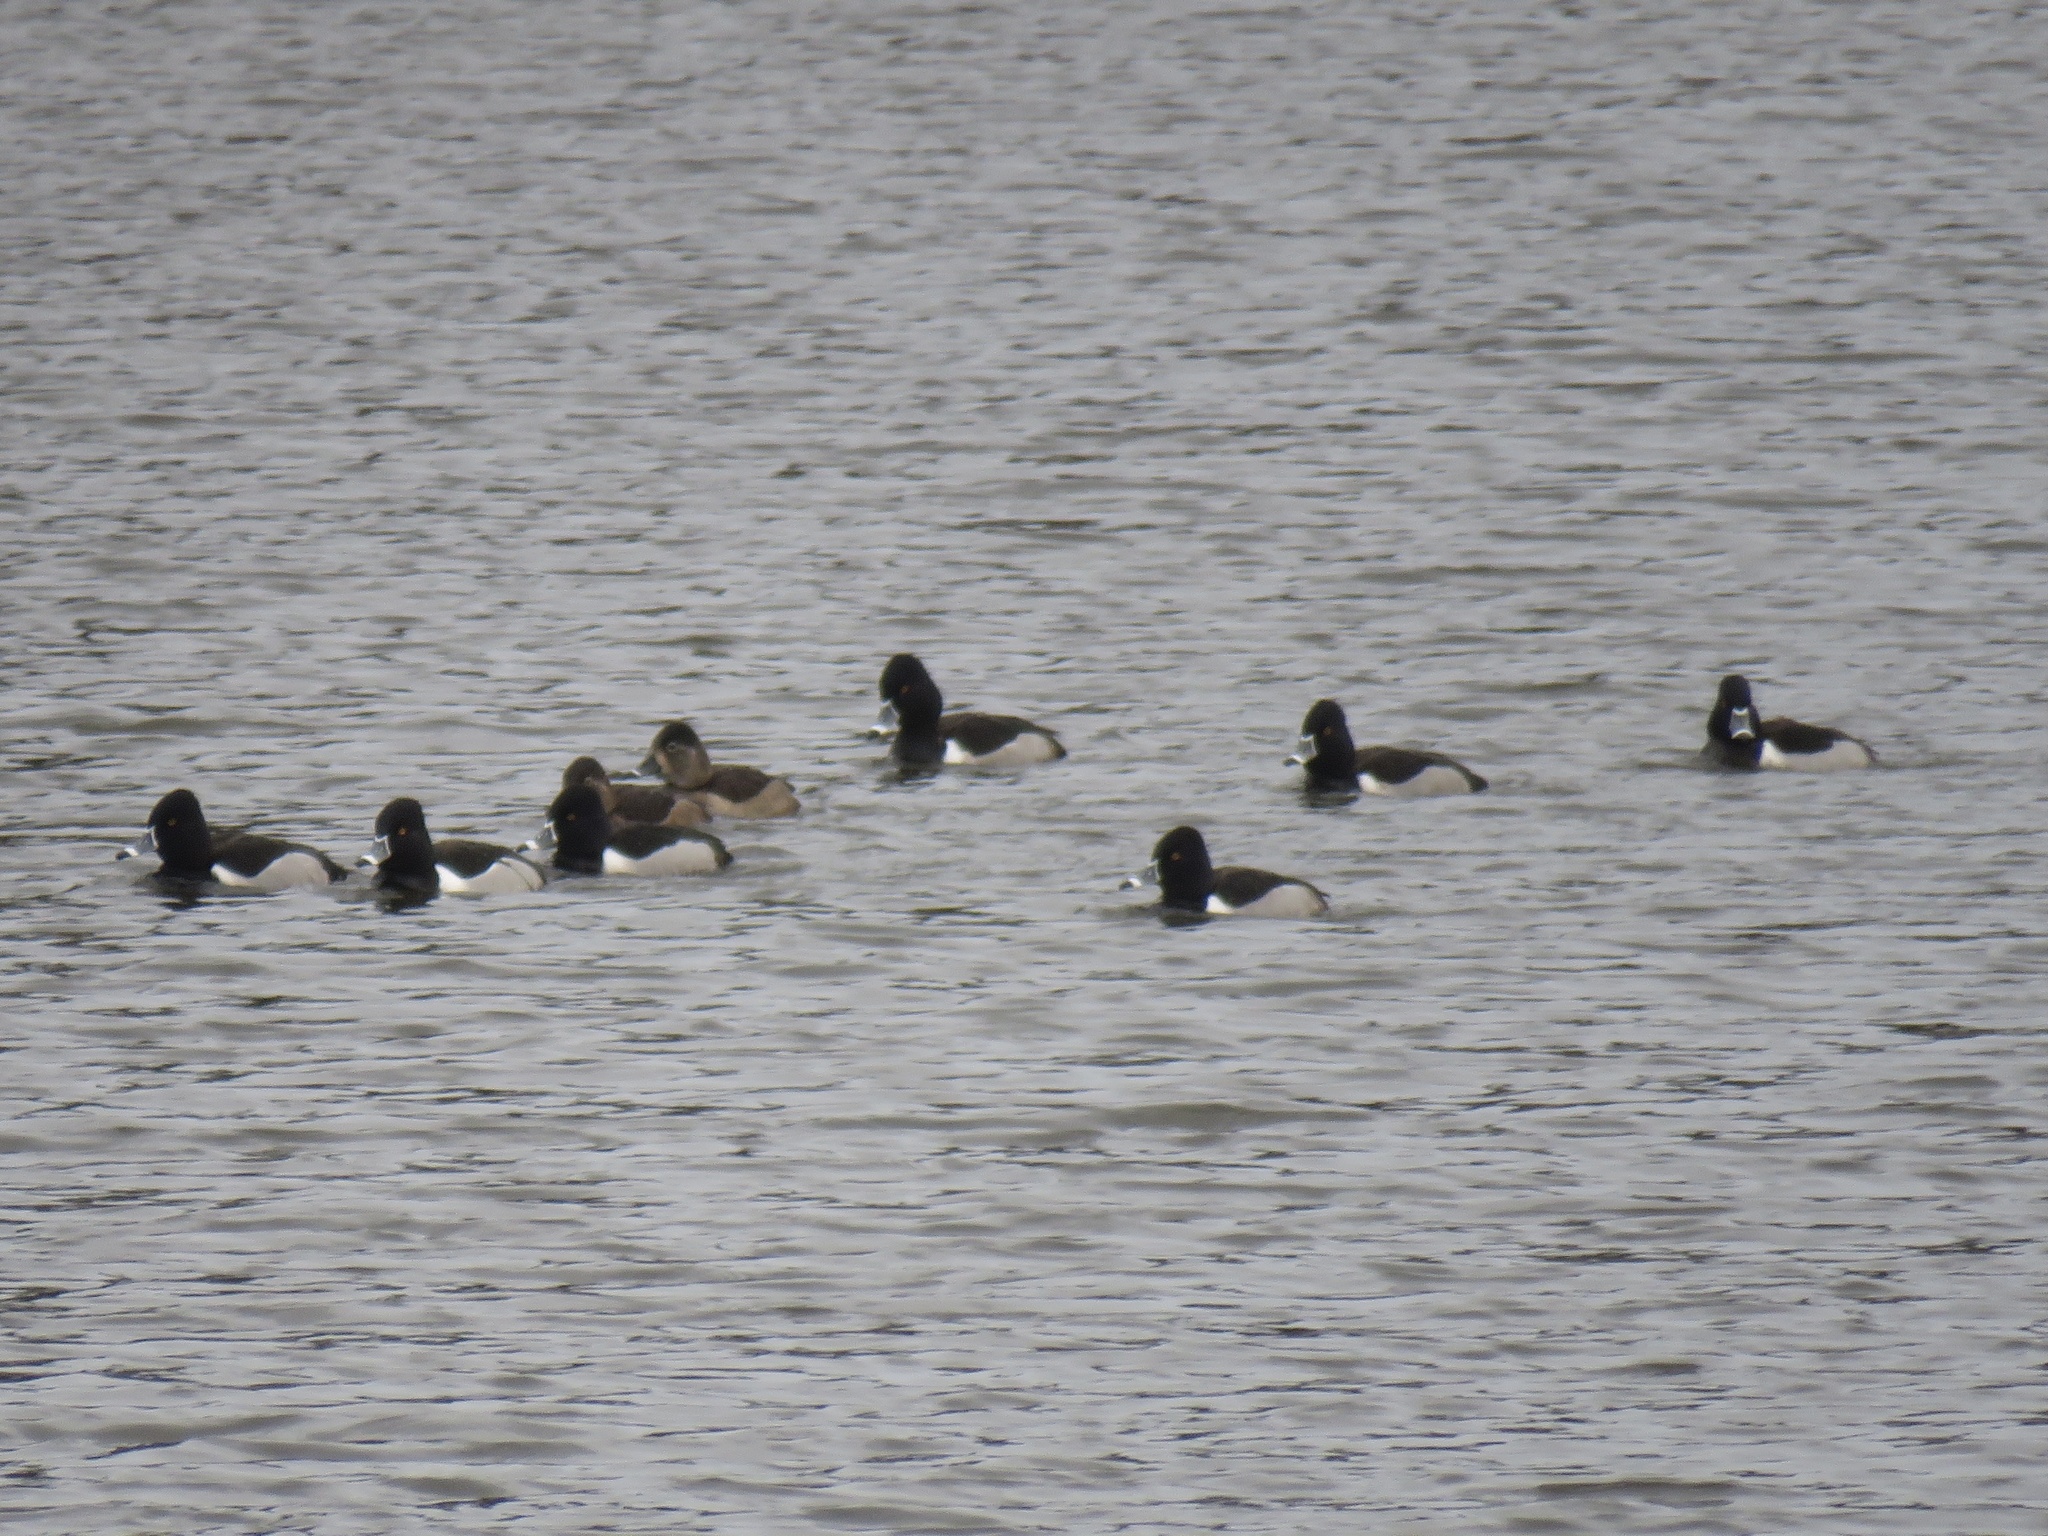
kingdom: Animalia
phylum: Chordata
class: Aves
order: Anseriformes
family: Anatidae
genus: Aythya
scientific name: Aythya collaris
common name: Ring-necked duck
